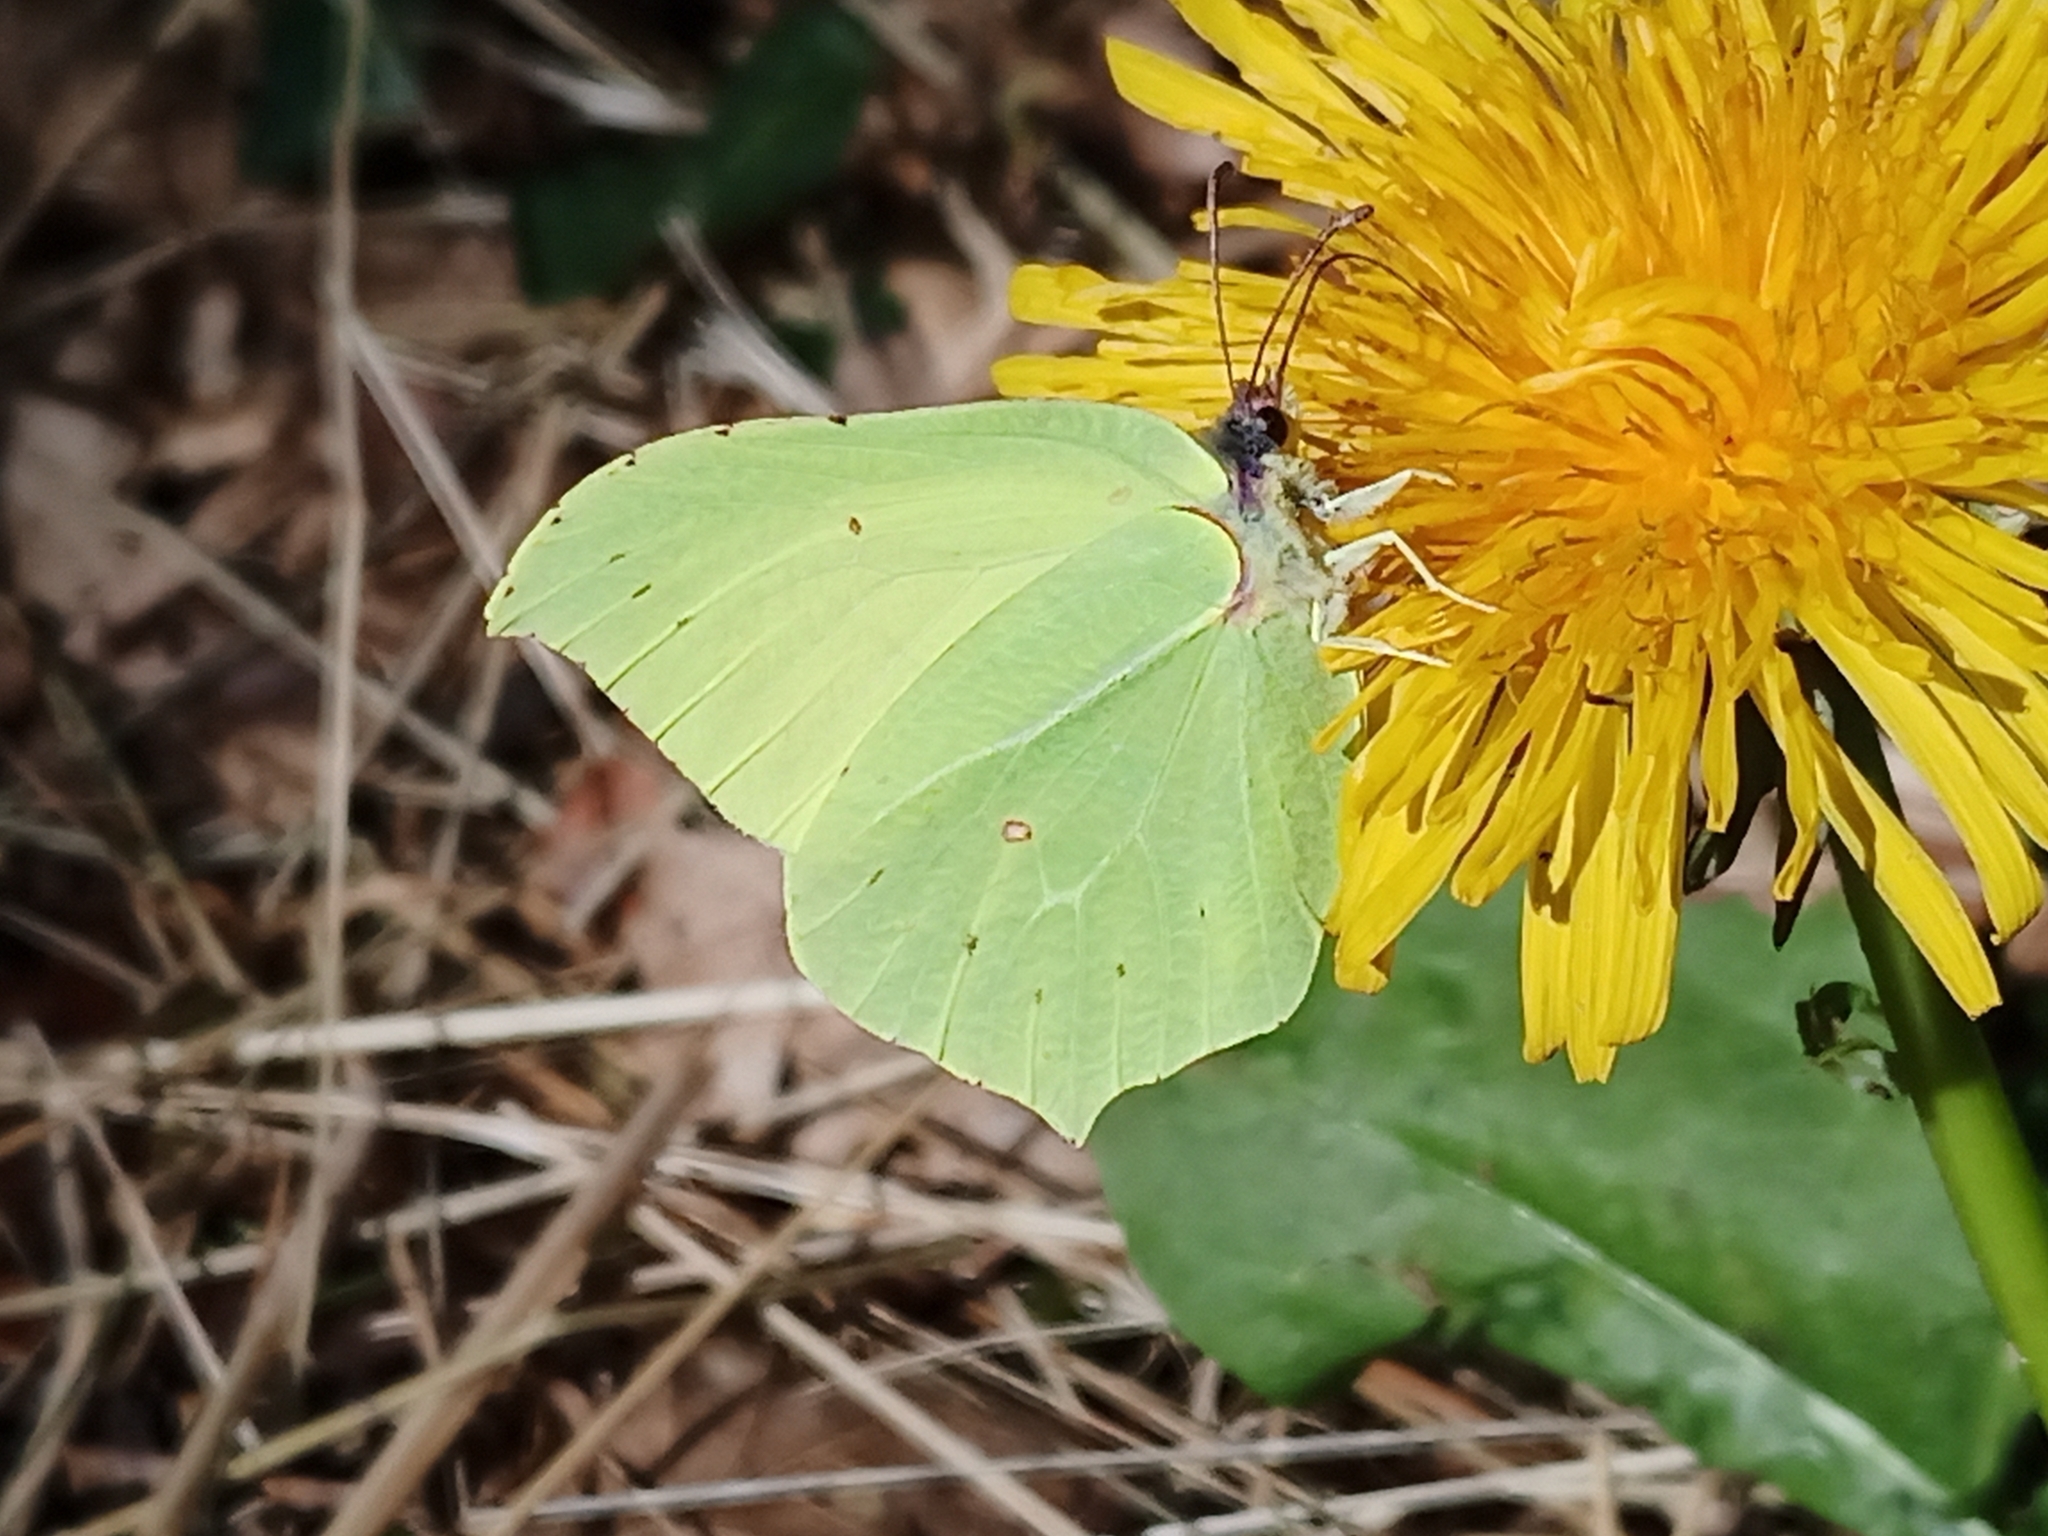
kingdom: Animalia
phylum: Arthropoda
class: Insecta
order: Lepidoptera
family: Pieridae
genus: Gonepteryx
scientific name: Gonepteryx rhamni
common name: Brimstone
